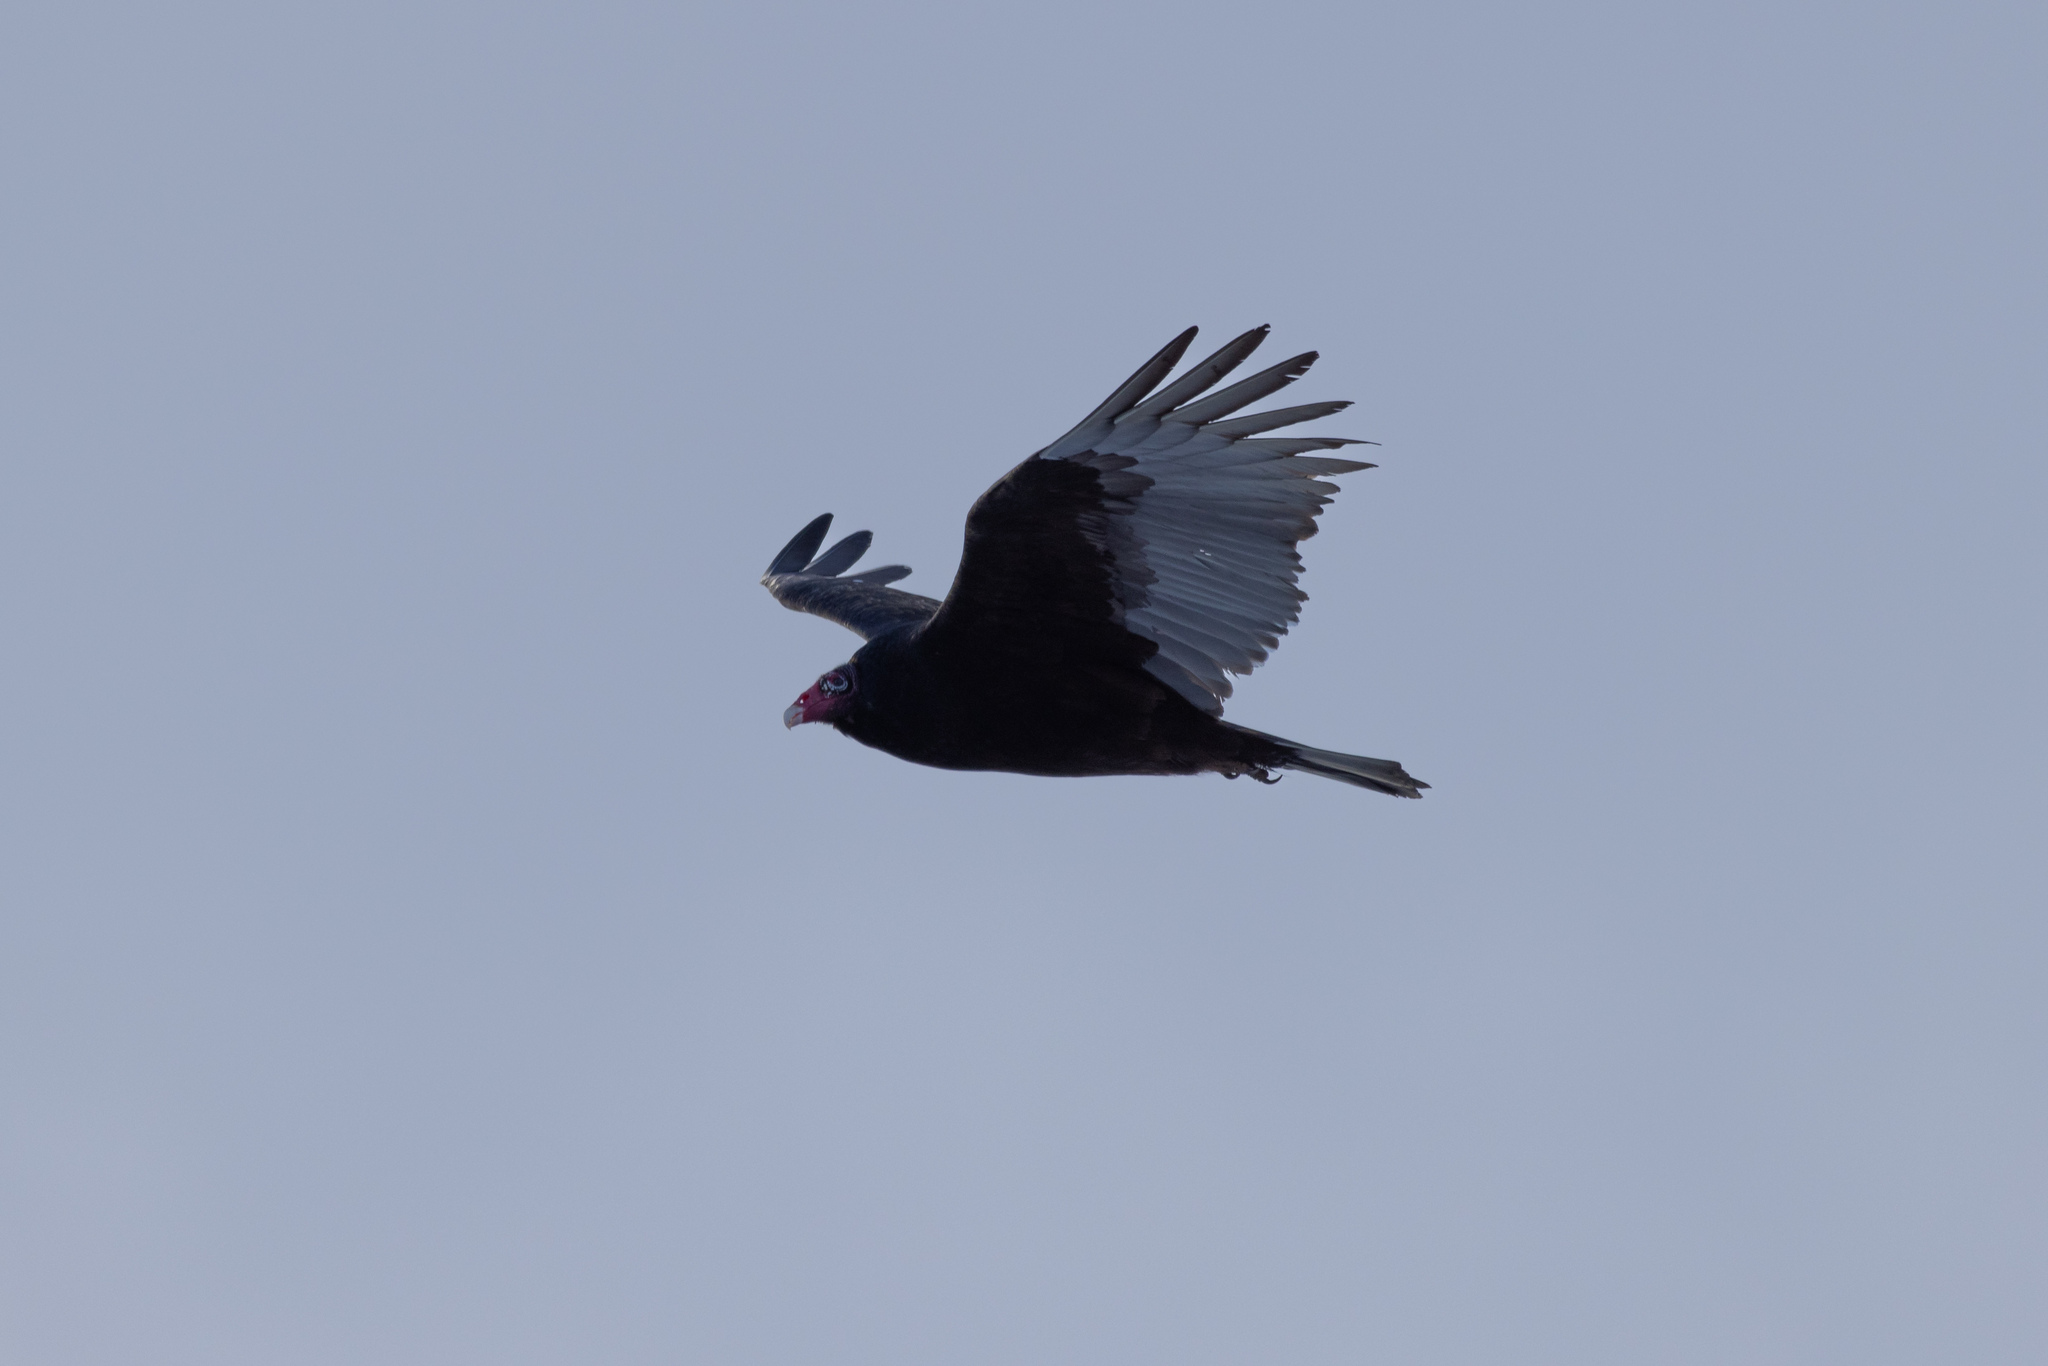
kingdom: Animalia
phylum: Chordata
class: Aves
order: Accipitriformes
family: Cathartidae
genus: Cathartes
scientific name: Cathartes aura
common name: Turkey vulture
